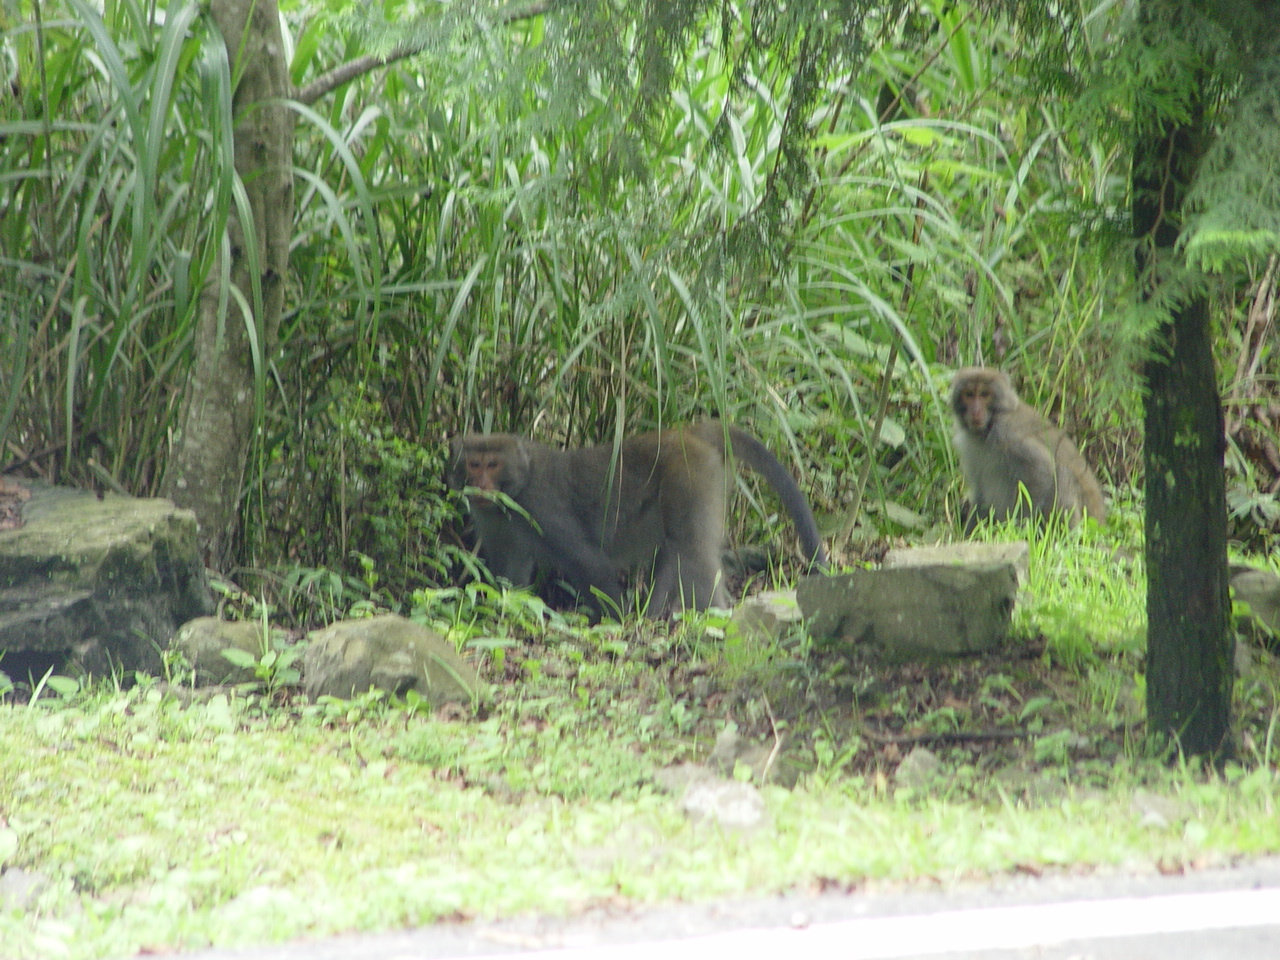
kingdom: Animalia
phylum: Chordata
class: Mammalia
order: Primates
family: Cercopithecidae
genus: Macaca
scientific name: Macaca cyclopis
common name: Formosan rock macaque
